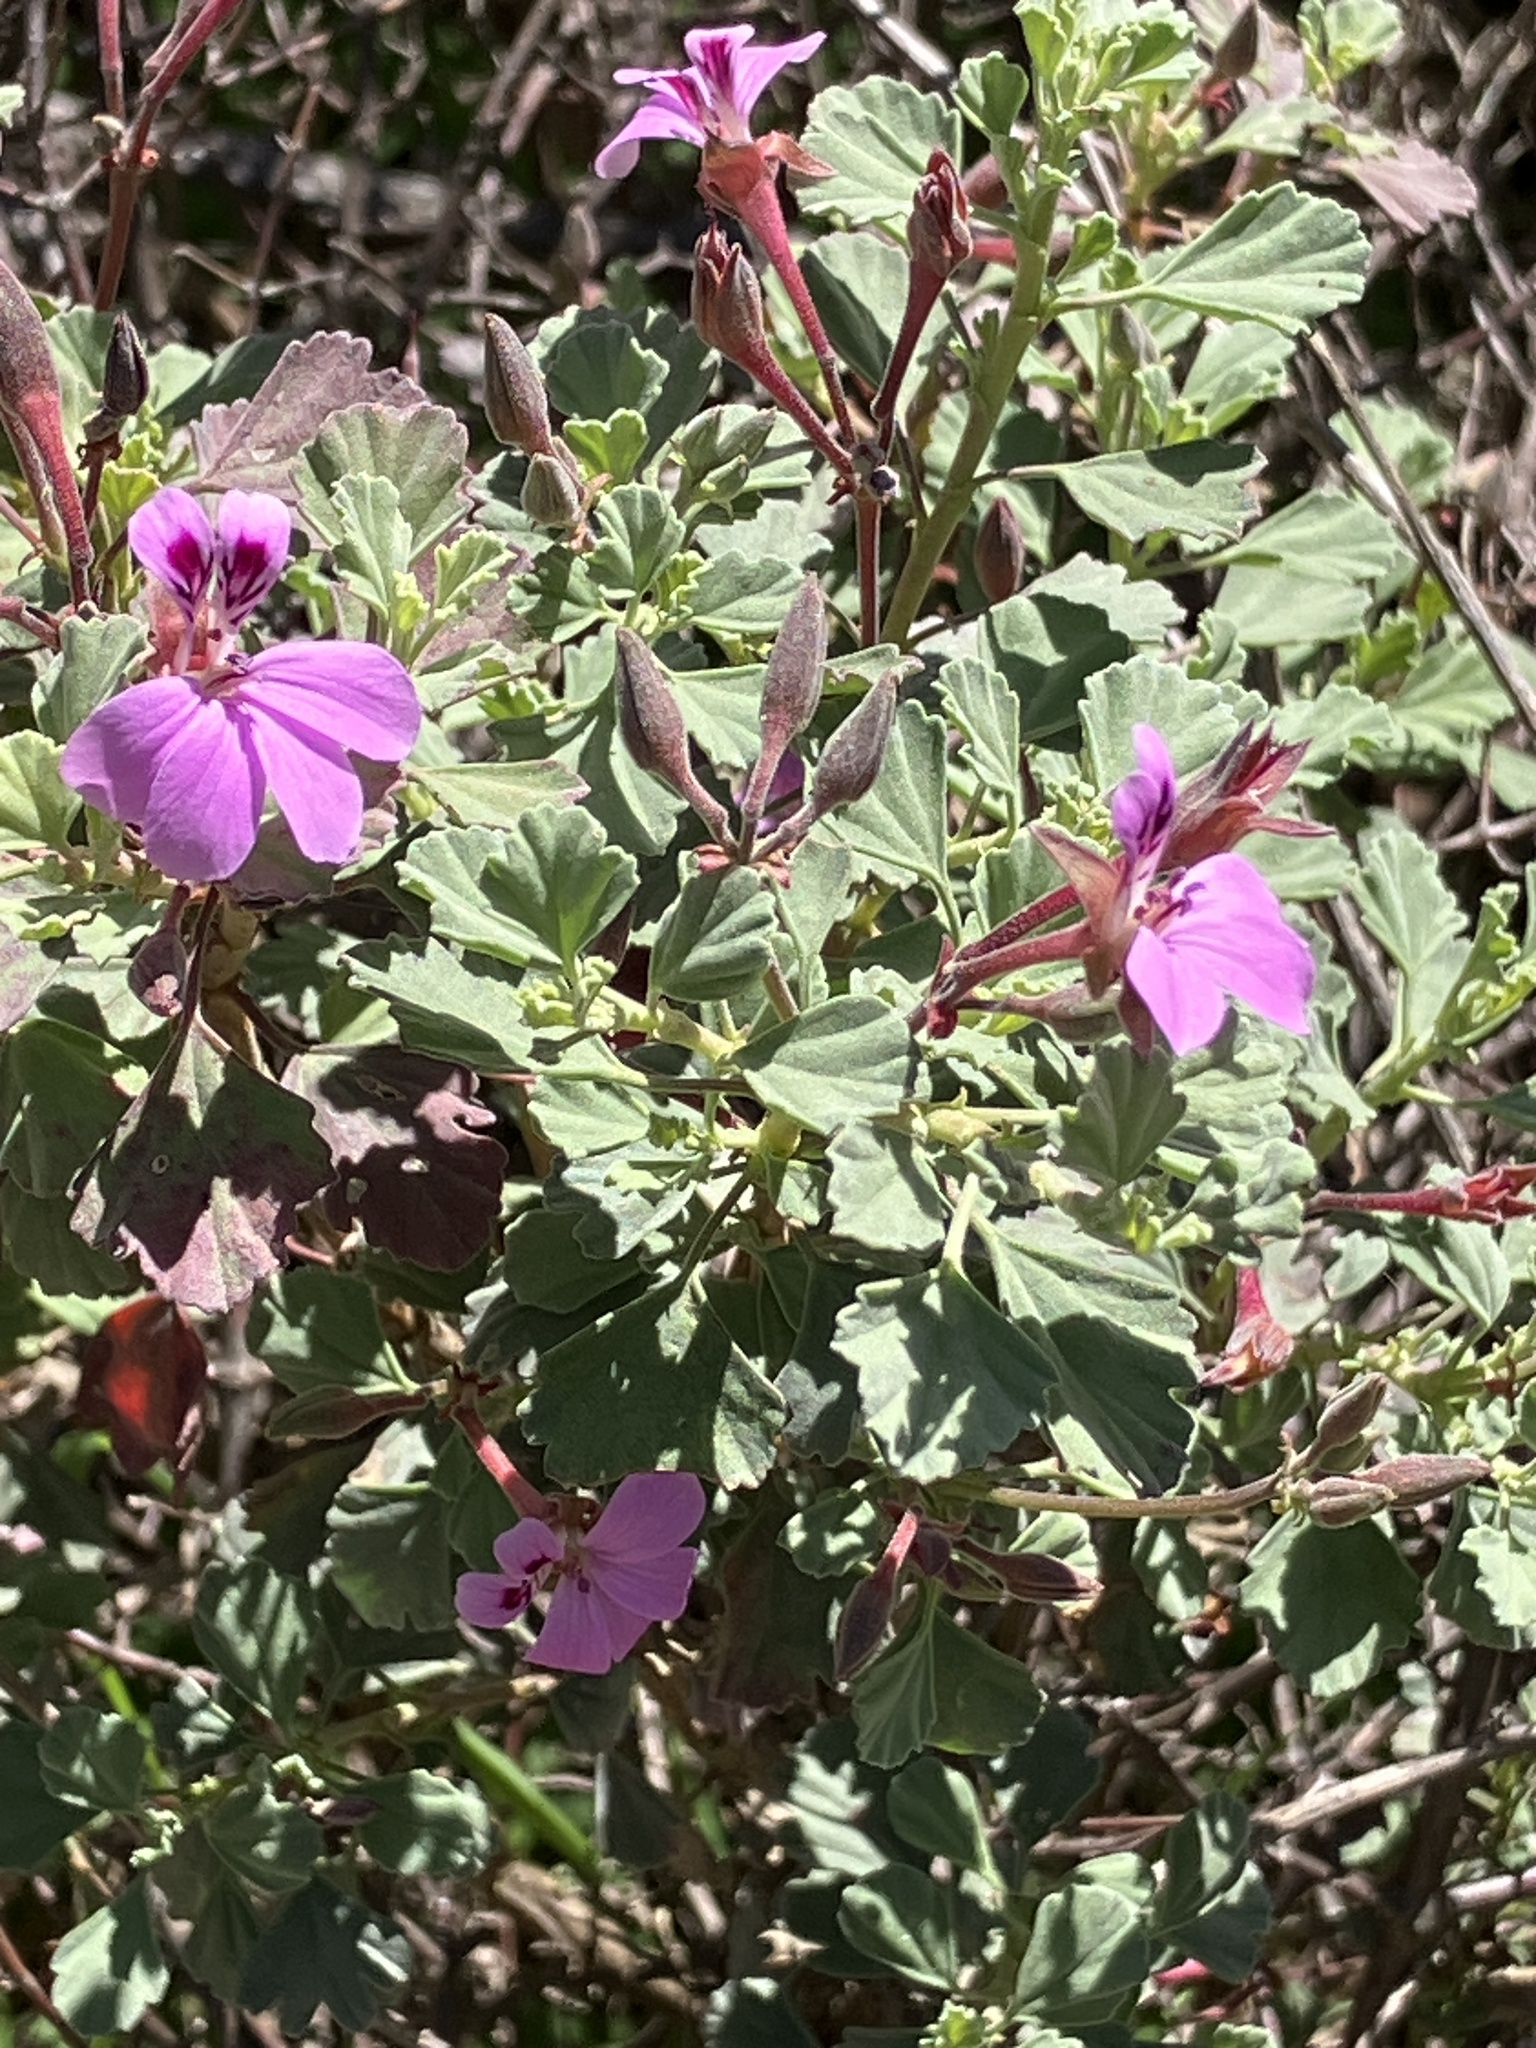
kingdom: Plantae
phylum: Tracheophyta
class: Magnoliopsida
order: Geraniales
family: Geraniaceae
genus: Pelargonium
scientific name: Pelargonium exstipulatum
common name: Soft-leaf trifid pelargonium
